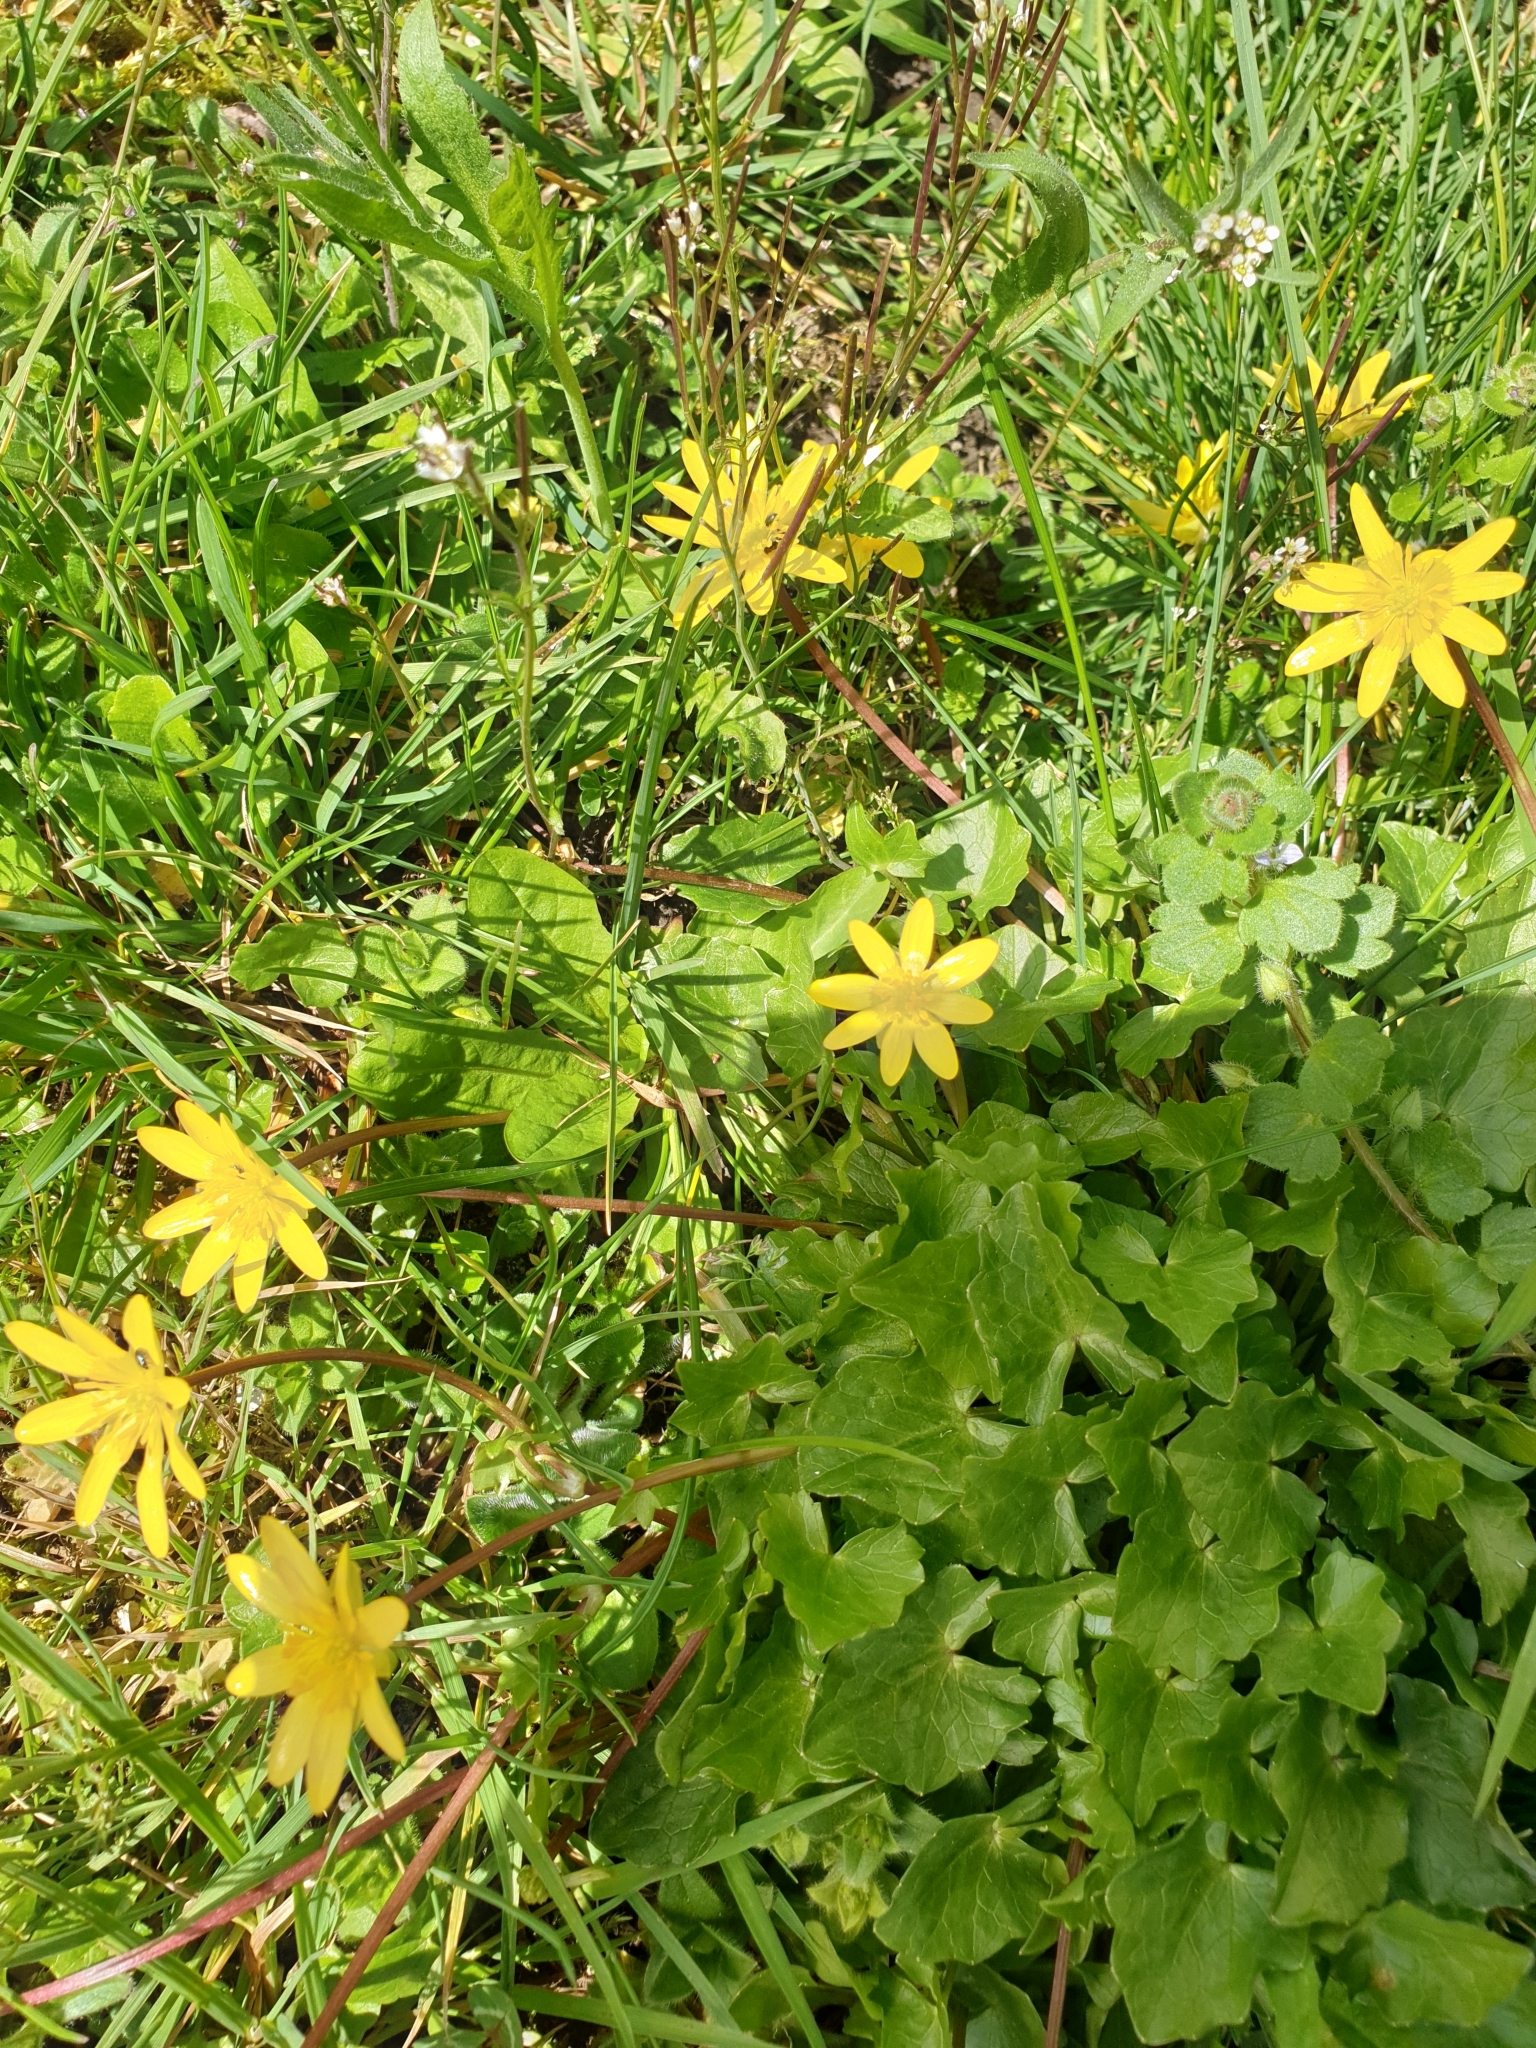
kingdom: Plantae
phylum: Tracheophyta
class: Magnoliopsida
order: Ranunculales
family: Ranunculaceae
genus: Ficaria
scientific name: Ficaria verna
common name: Lesser celandine
